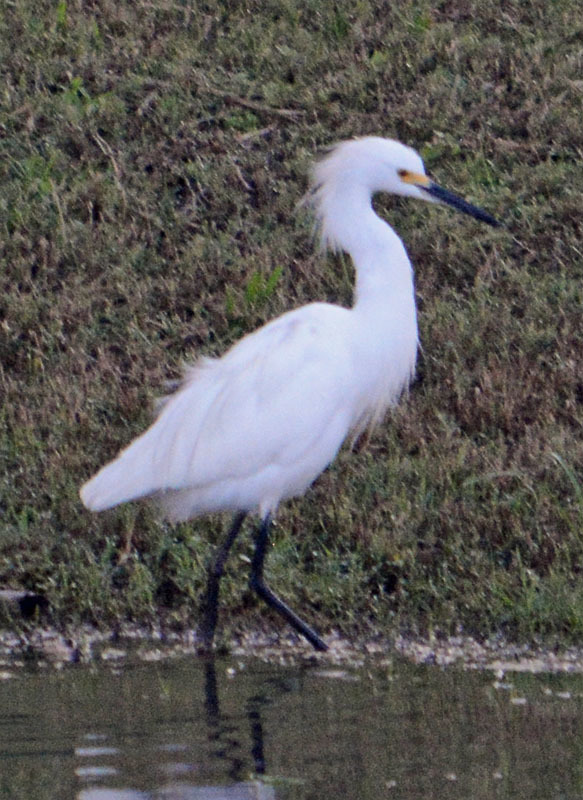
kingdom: Animalia
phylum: Chordata
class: Aves
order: Pelecaniformes
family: Ardeidae
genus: Egretta
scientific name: Egretta thula
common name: Snowy egret
